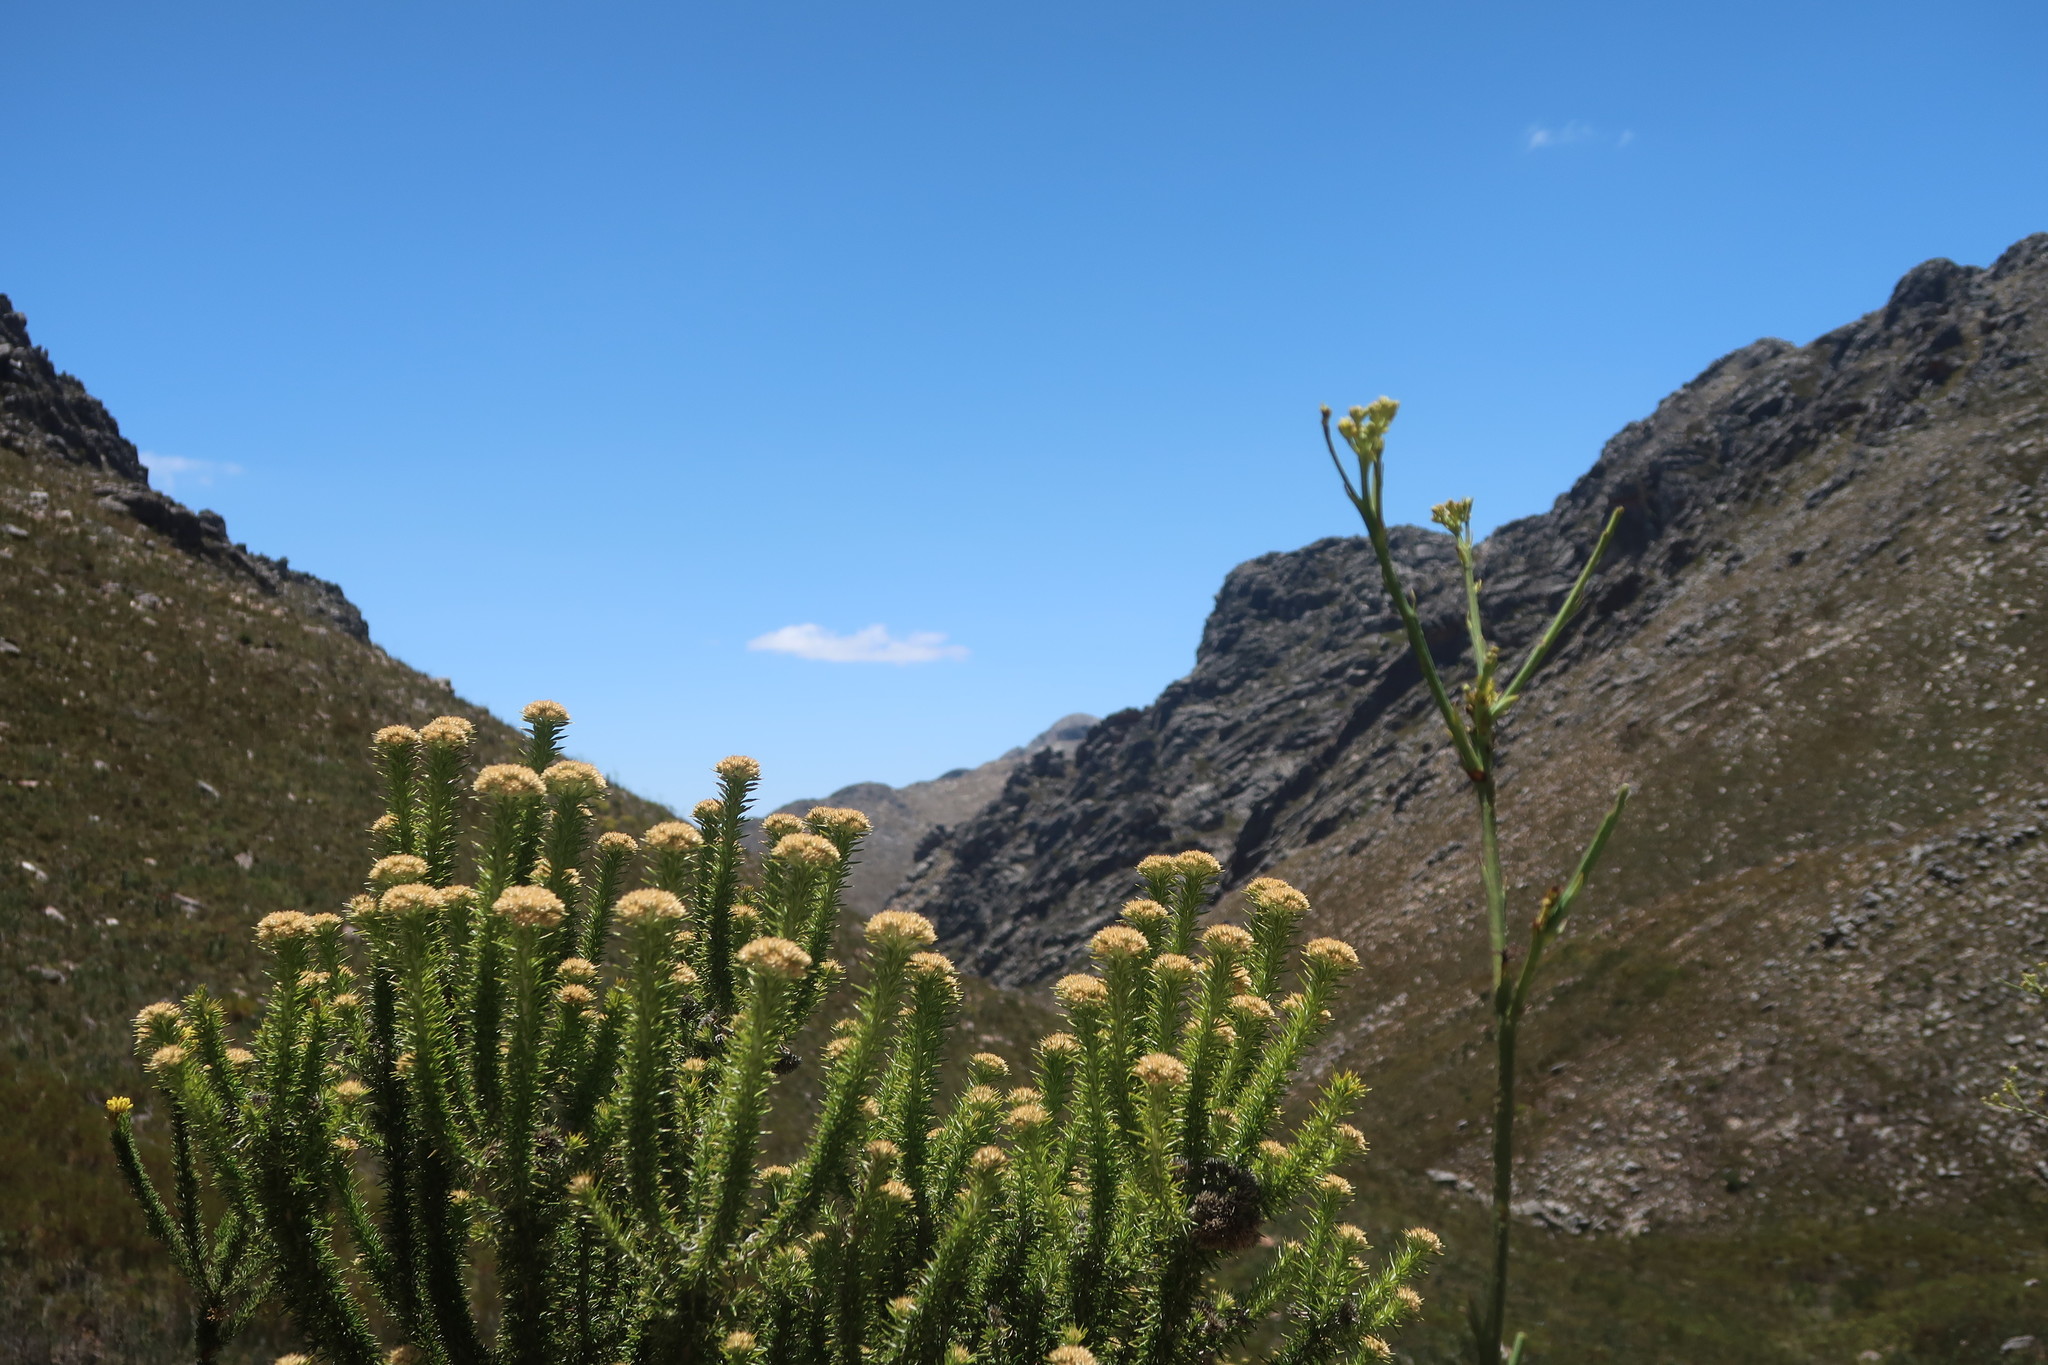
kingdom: Plantae
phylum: Tracheophyta
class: Magnoliopsida
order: Asterales
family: Asteraceae
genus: Metalasia
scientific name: Metalasia trivialis
